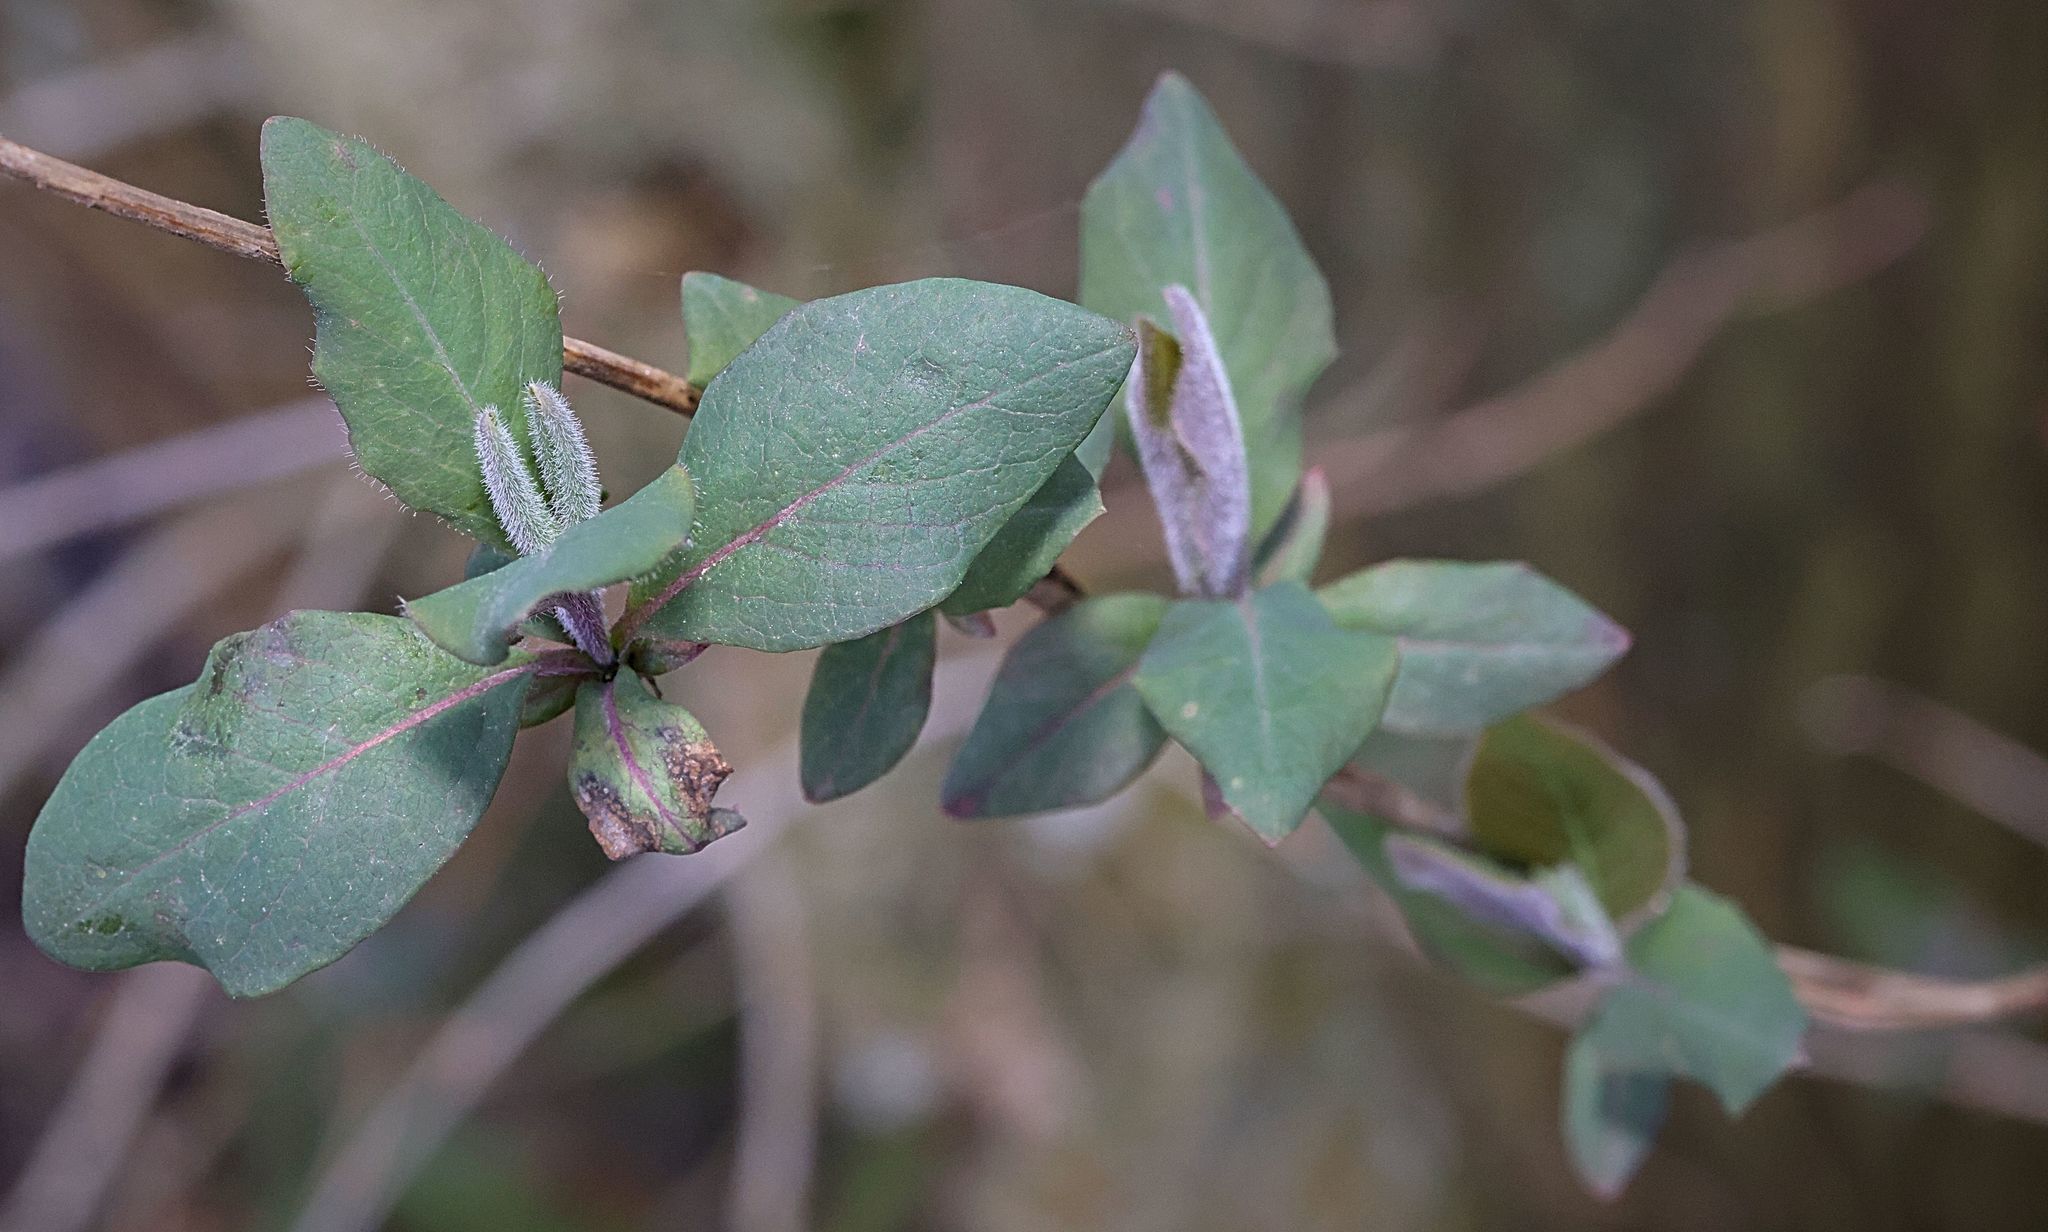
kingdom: Plantae
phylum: Tracheophyta
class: Magnoliopsida
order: Dipsacales
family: Caprifoliaceae
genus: Lonicera
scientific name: Lonicera periclymenum
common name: European honeysuckle
